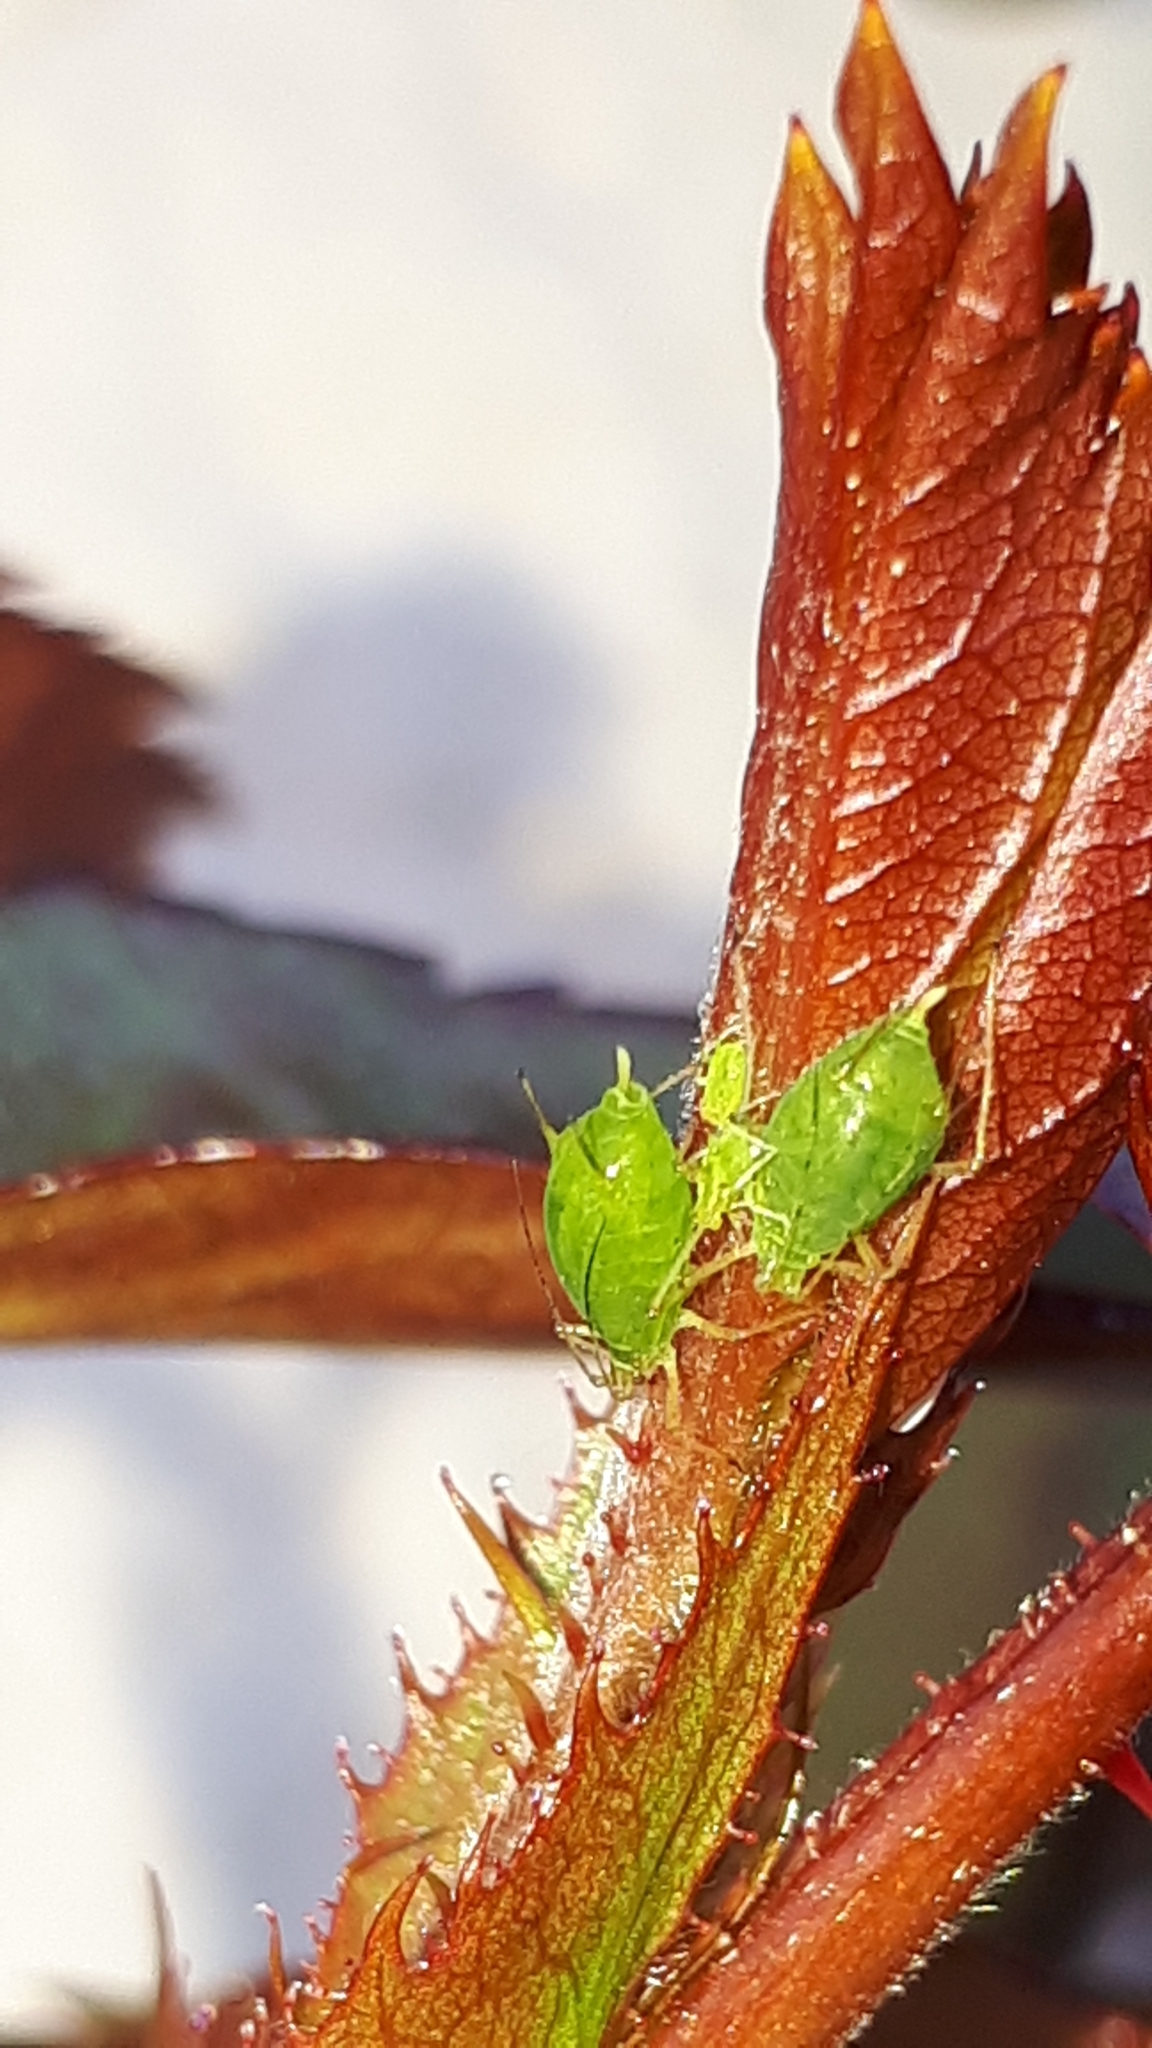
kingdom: Animalia
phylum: Arthropoda
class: Insecta
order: Hemiptera
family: Aphididae
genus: Macrosiphum
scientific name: Macrosiphum euphorbiae
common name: Potato aphid
